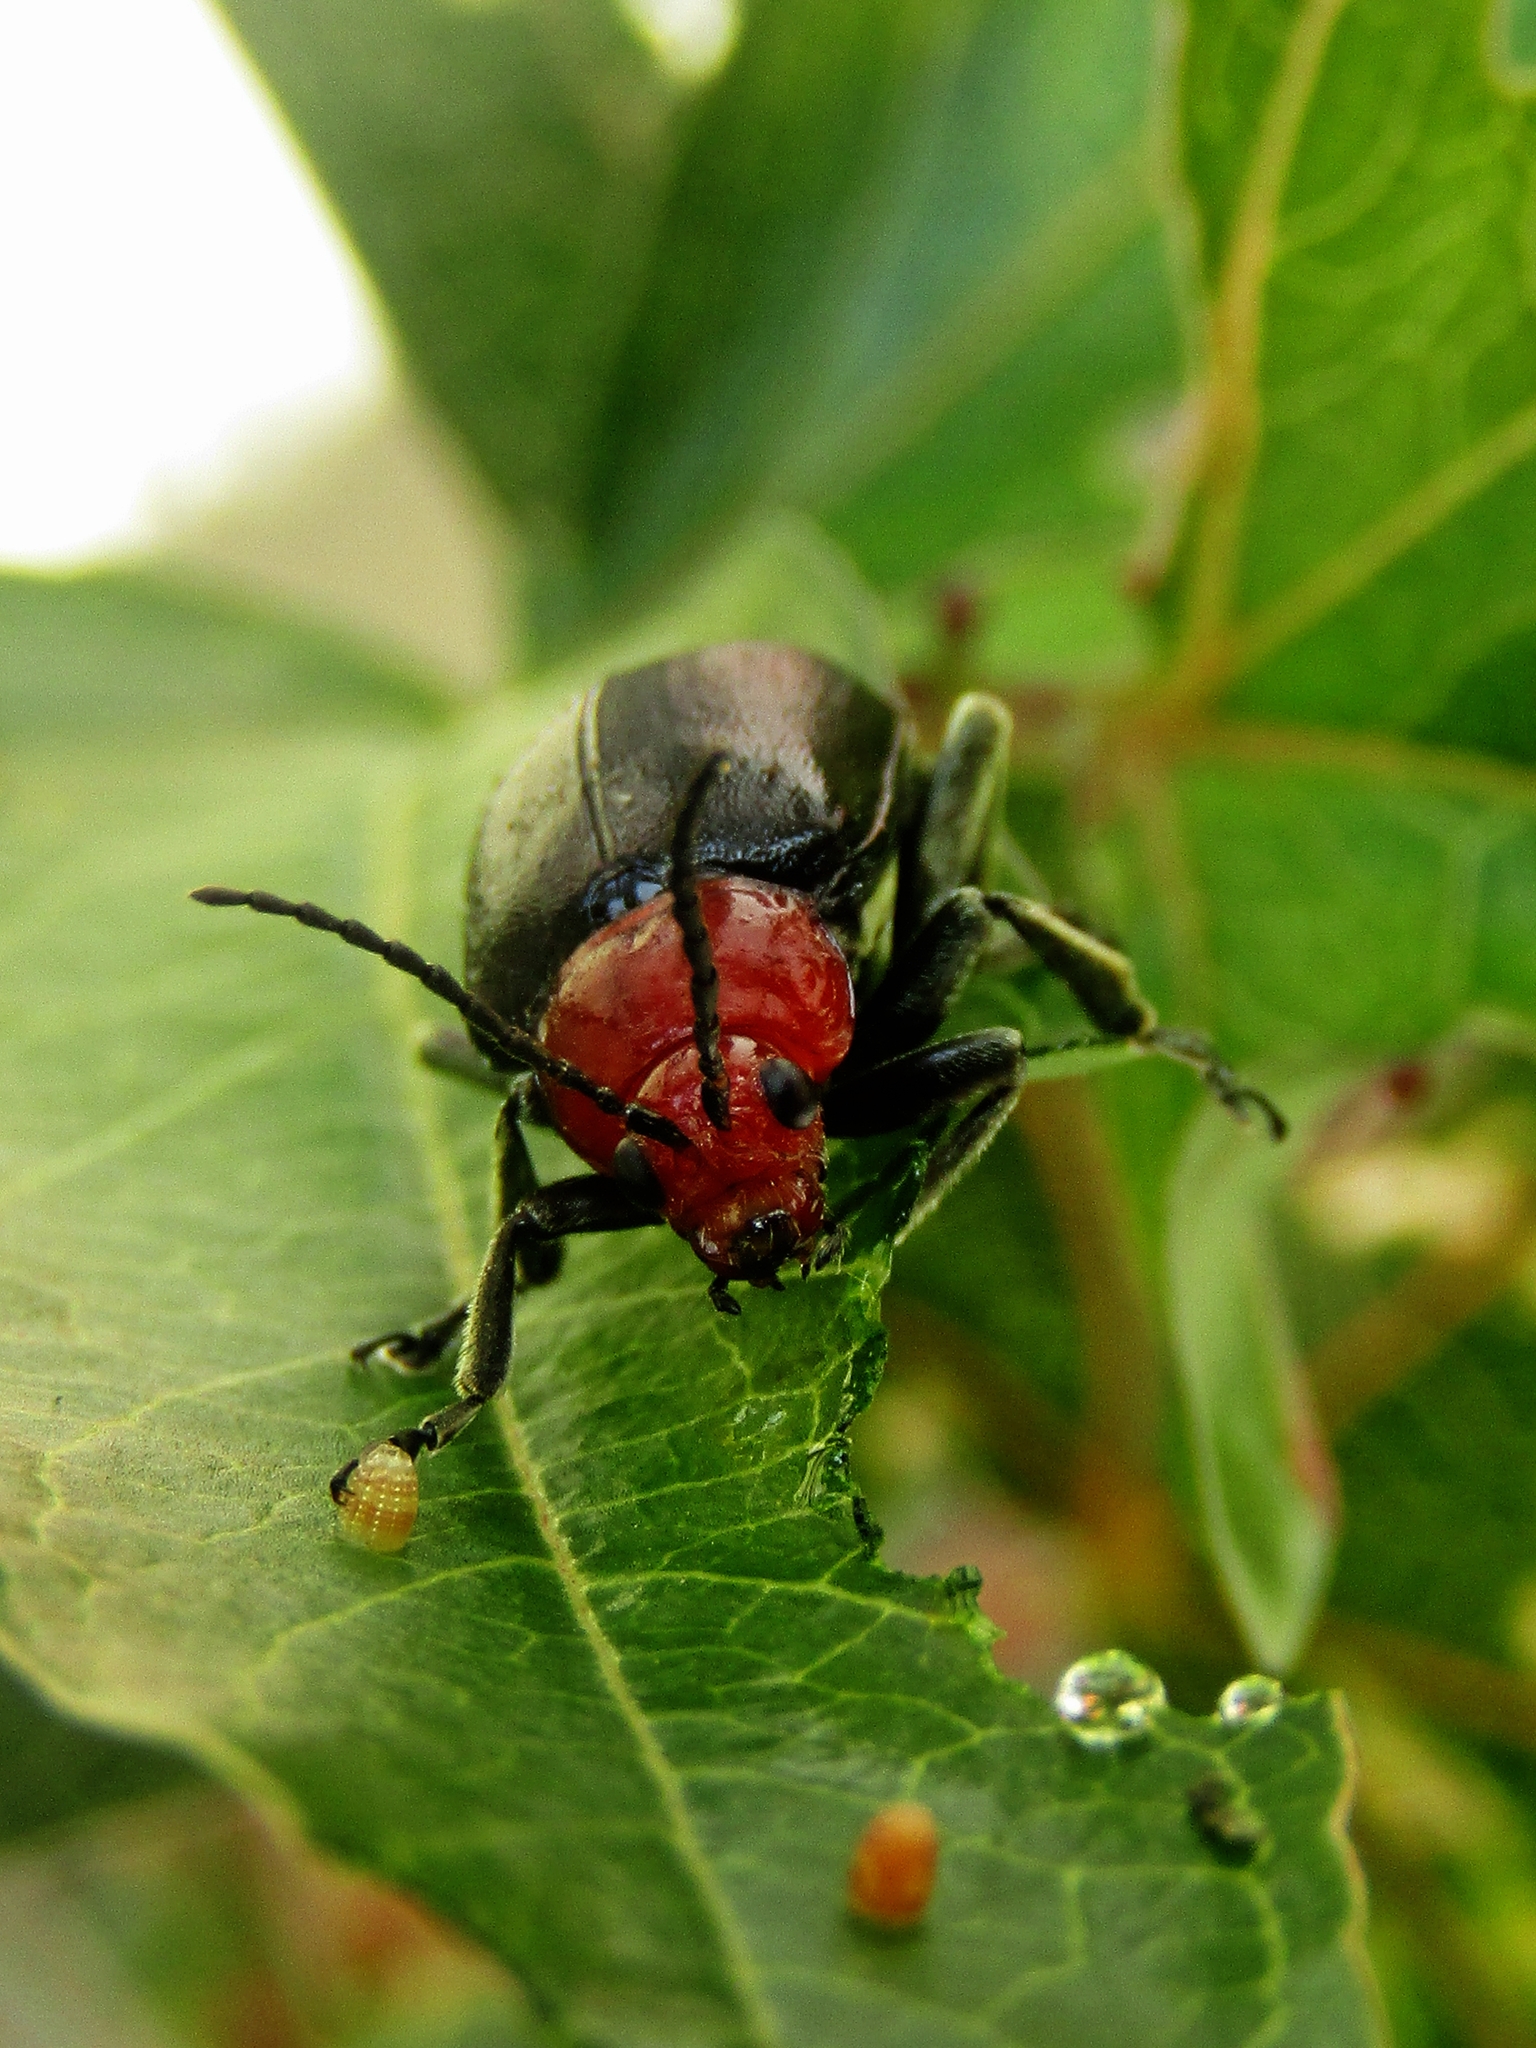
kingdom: Animalia
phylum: Arthropoda
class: Insecta
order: Coleoptera
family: Chrysomelidae
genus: Cacoscelis
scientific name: Cacoscelis
